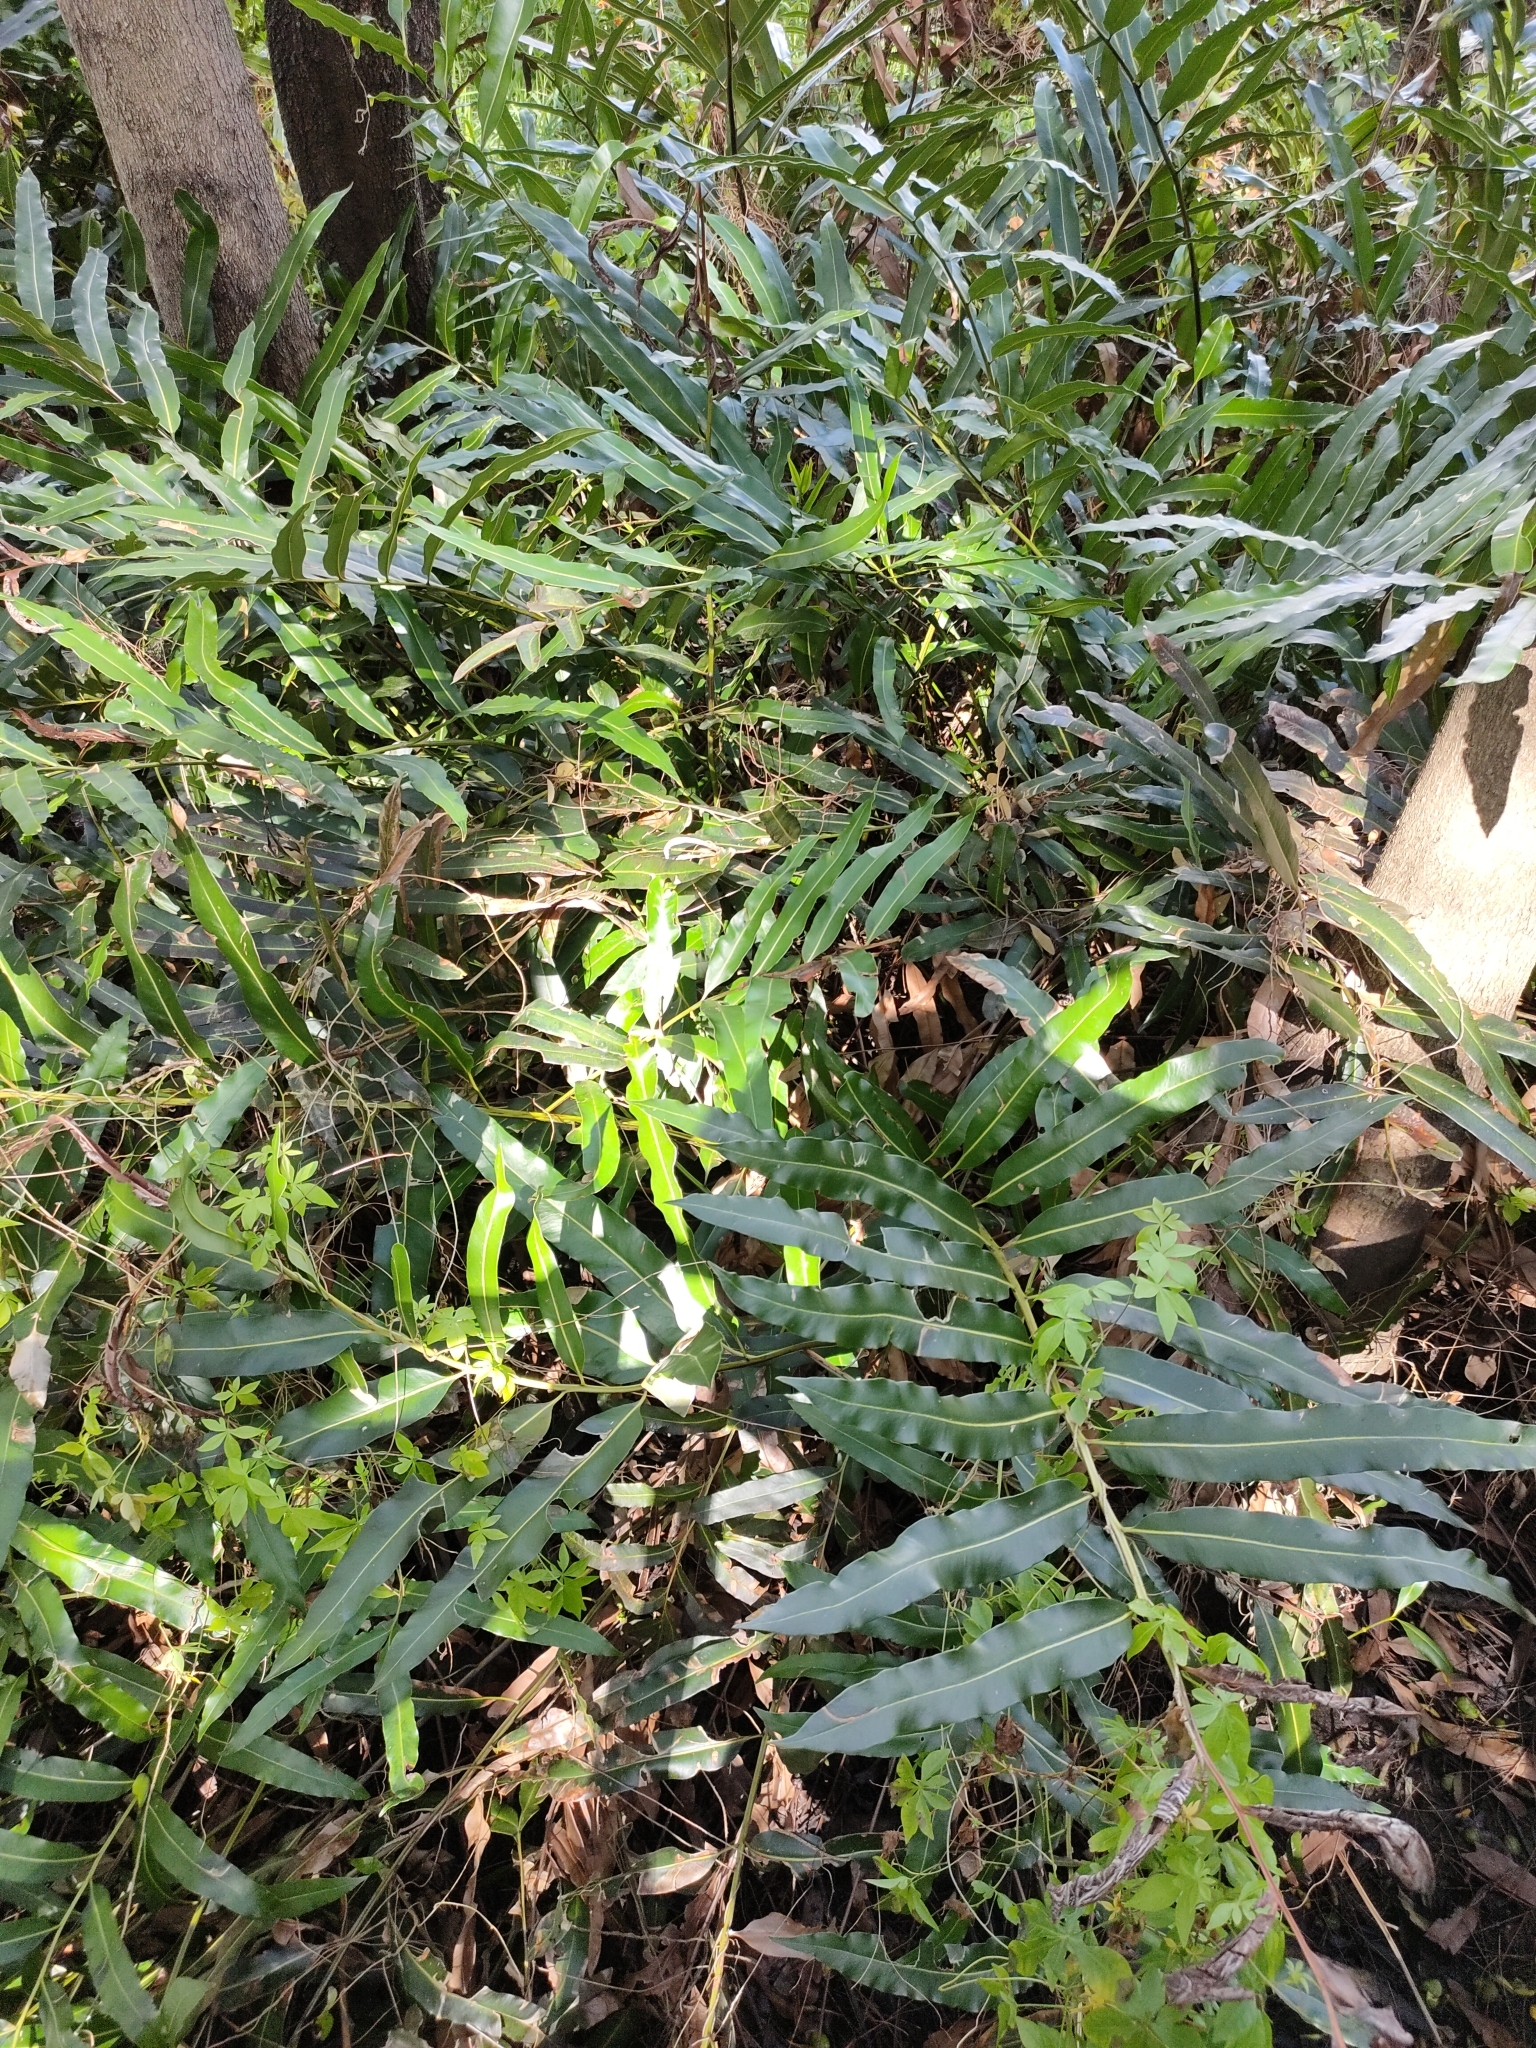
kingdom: Plantae
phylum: Tracheophyta
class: Polypodiopsida
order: Polypodiales
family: Pteridaceae
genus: Acrostichum
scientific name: Acrostichum speciosum
